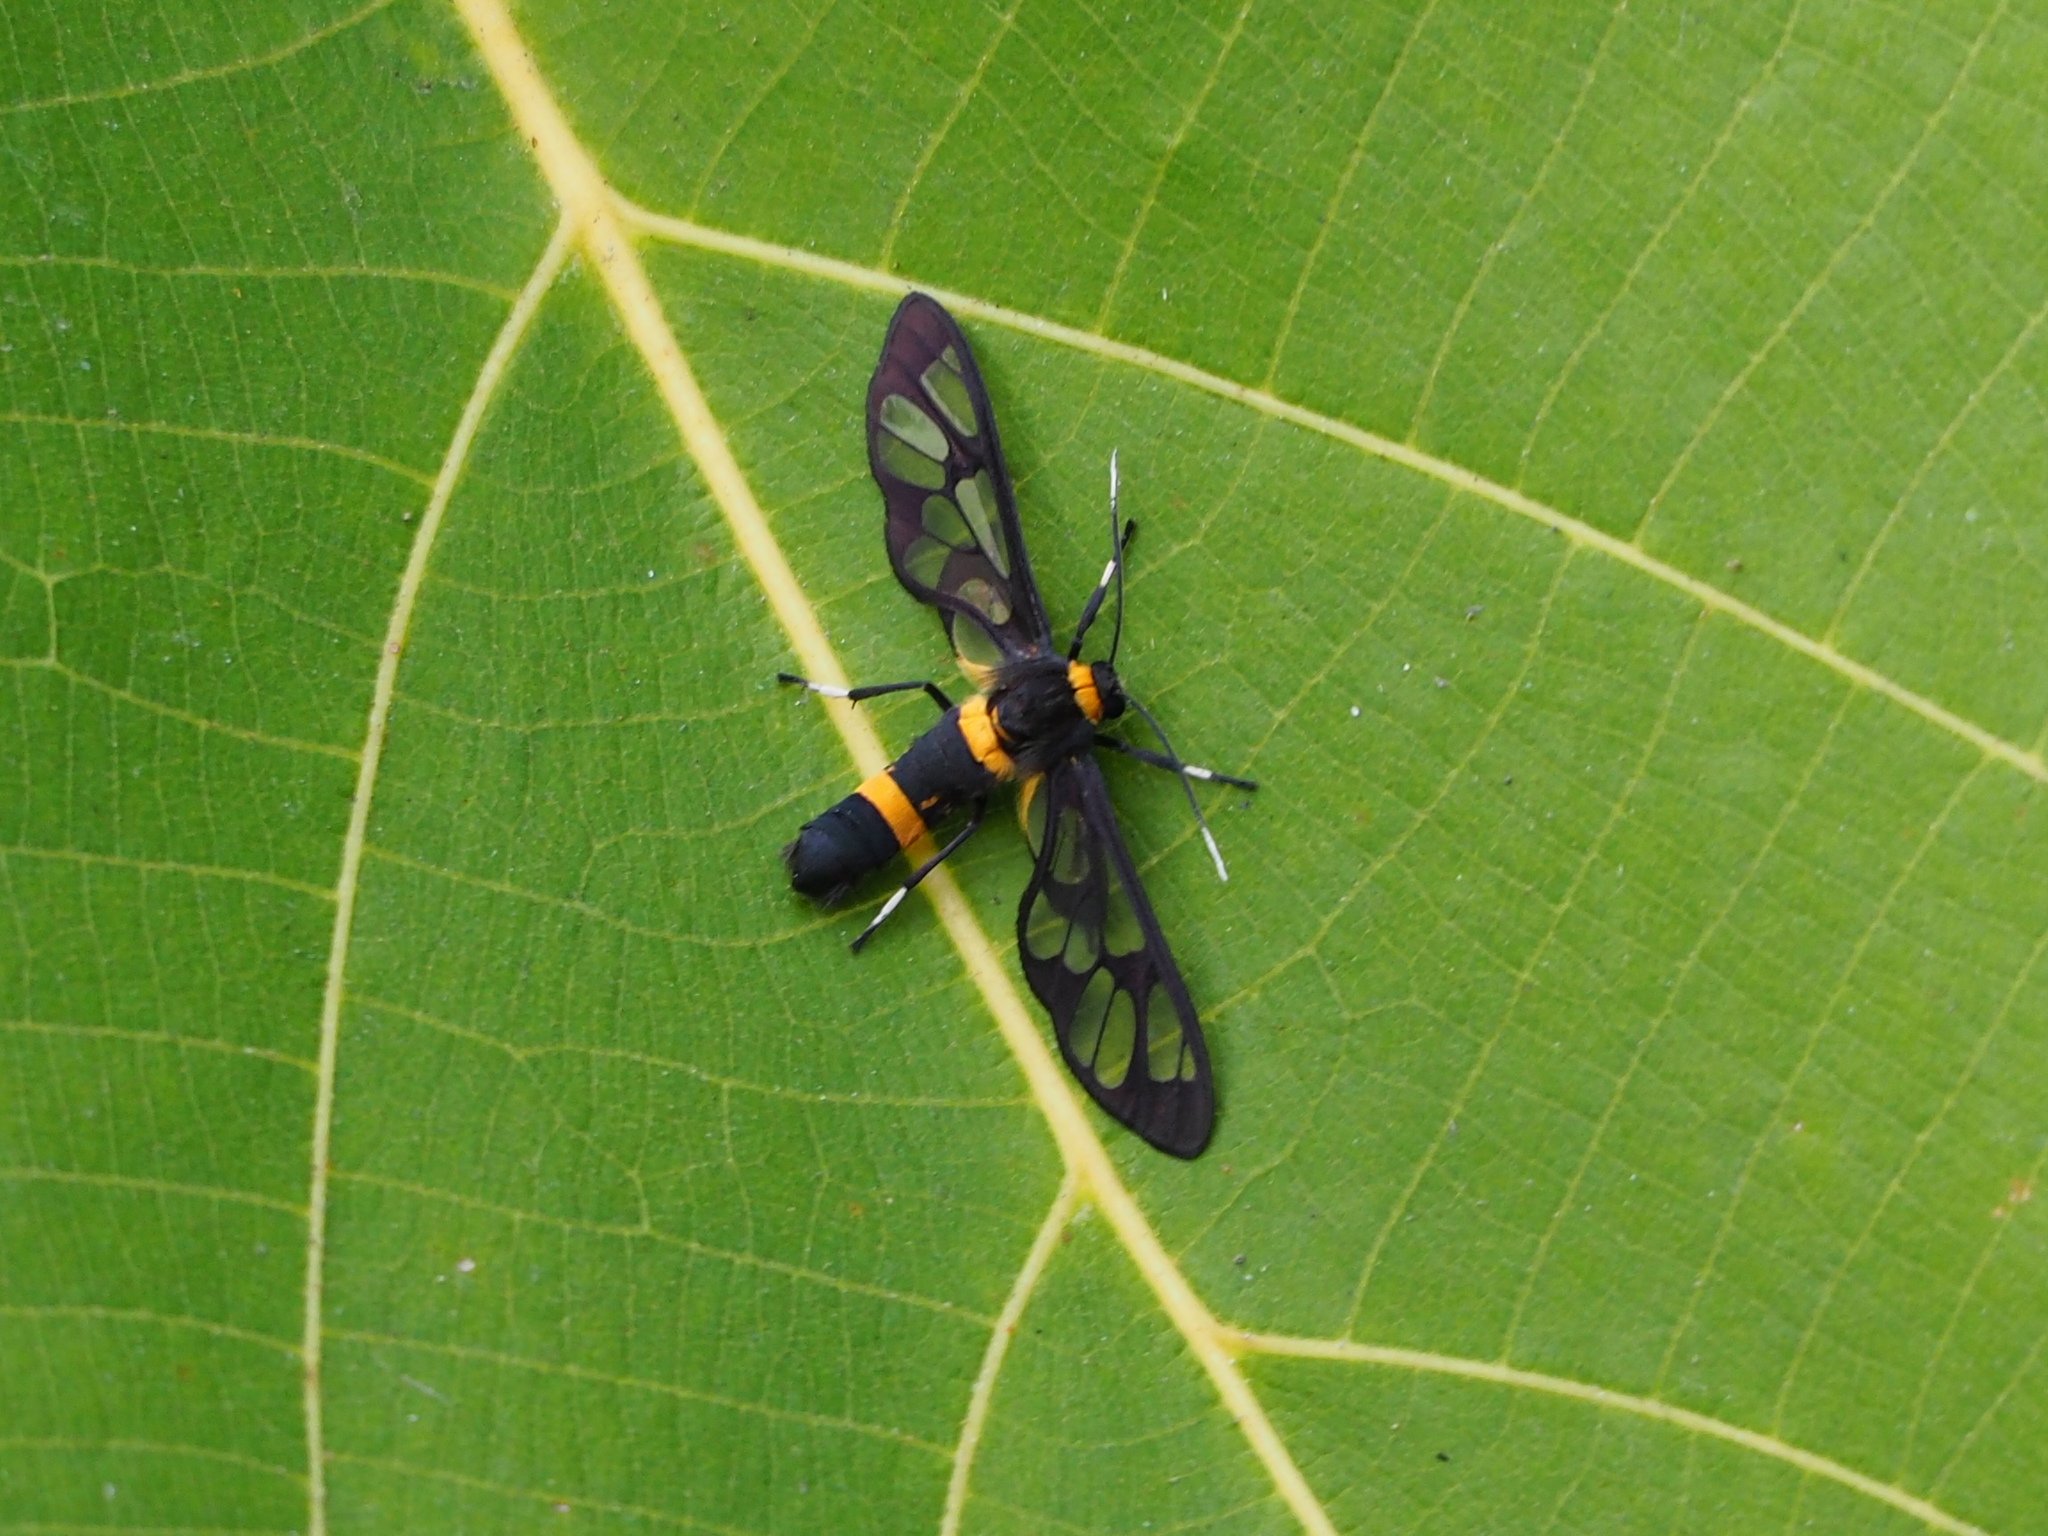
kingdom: Animalia
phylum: Arthropoda
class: Insecta
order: Lepidoptera
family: Erebidae
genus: Syntomoides
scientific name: Syntomoides imaon
